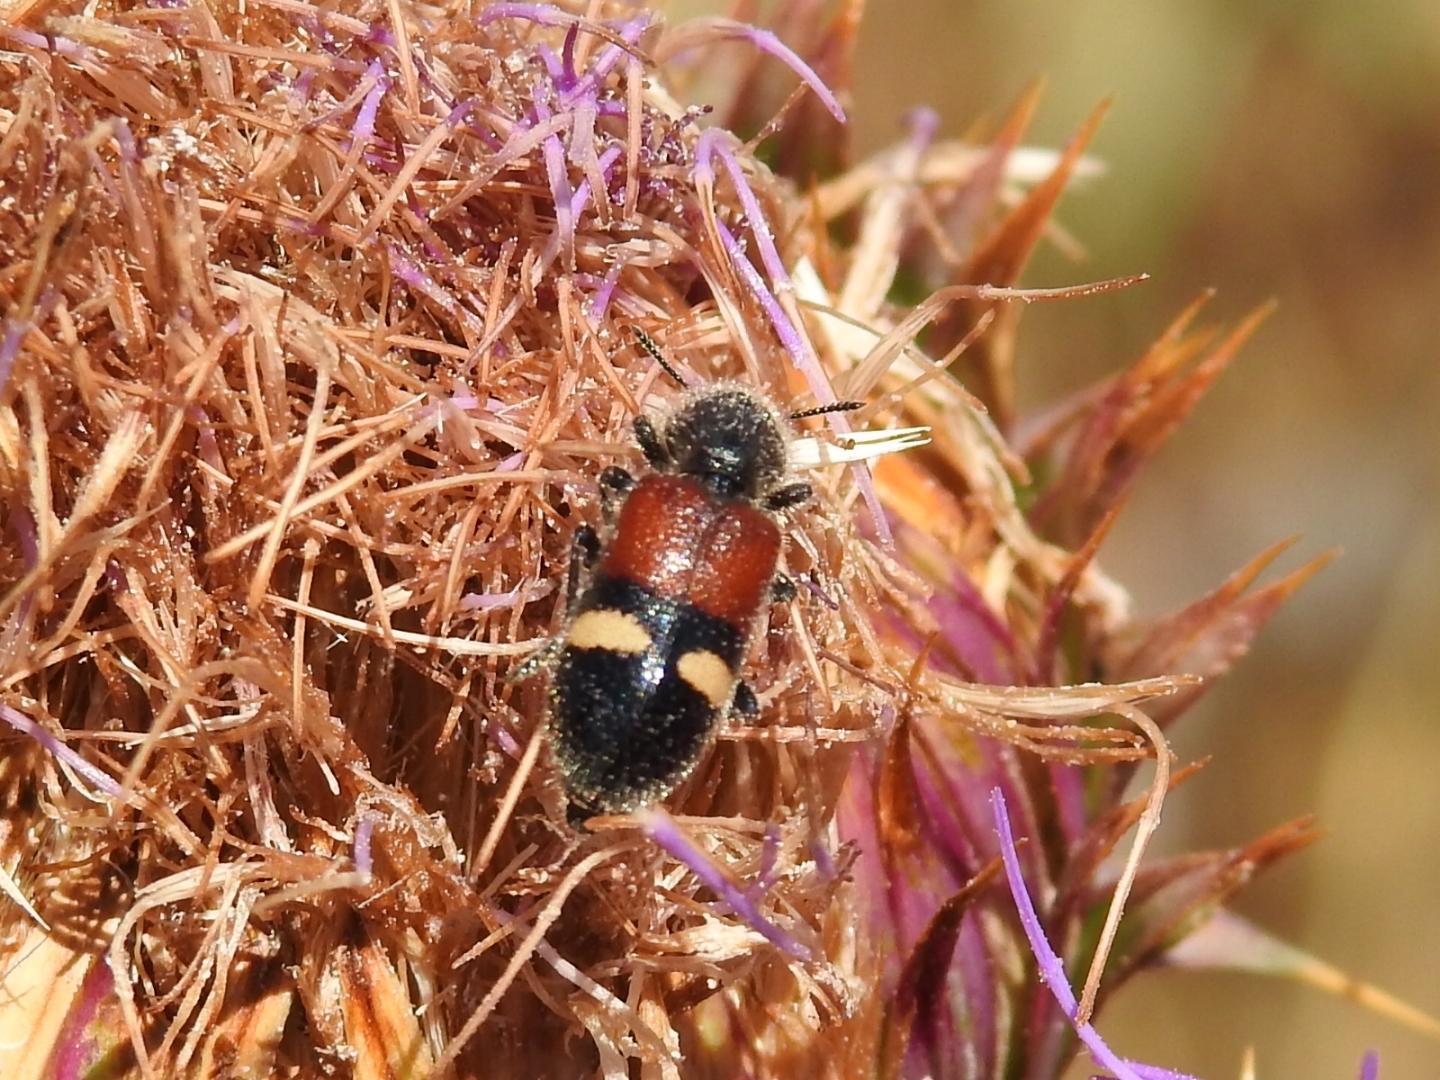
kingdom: Animalia
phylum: Arthropoda
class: Insecta
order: Coleoptera
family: Cleridae
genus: Tilloidea
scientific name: Tilloidea transversalis
